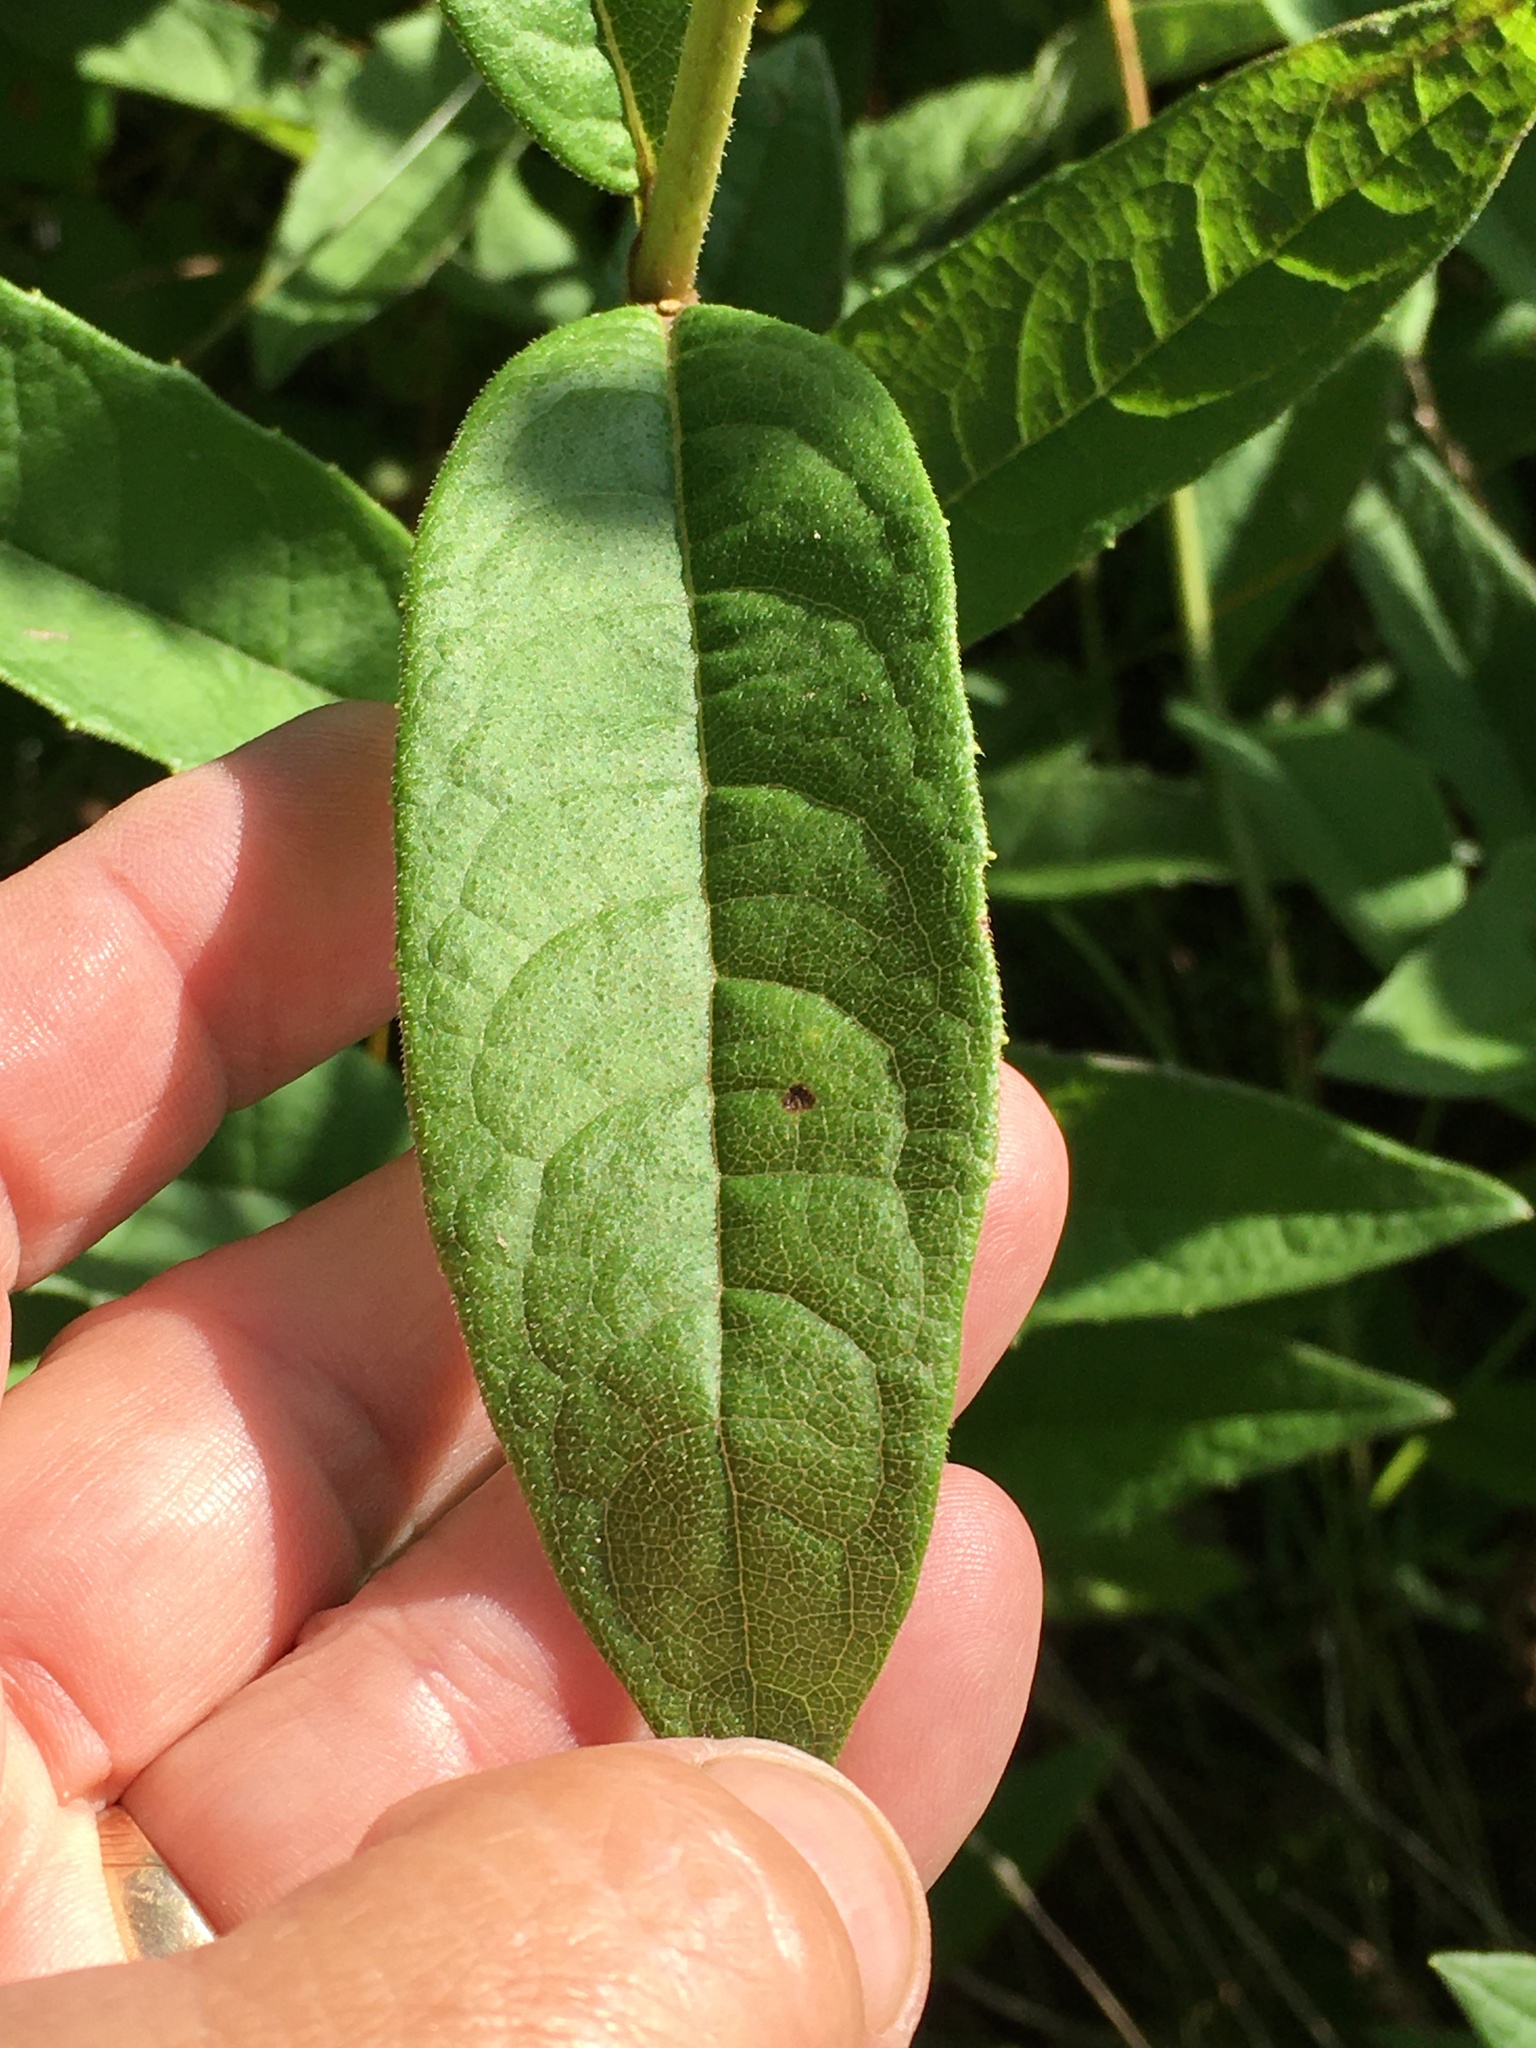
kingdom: Plantae
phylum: Tracheophyta
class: Magnoliopsida
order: Asterales
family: Asteraceae
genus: Silphium
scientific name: Silphium asteriscus
